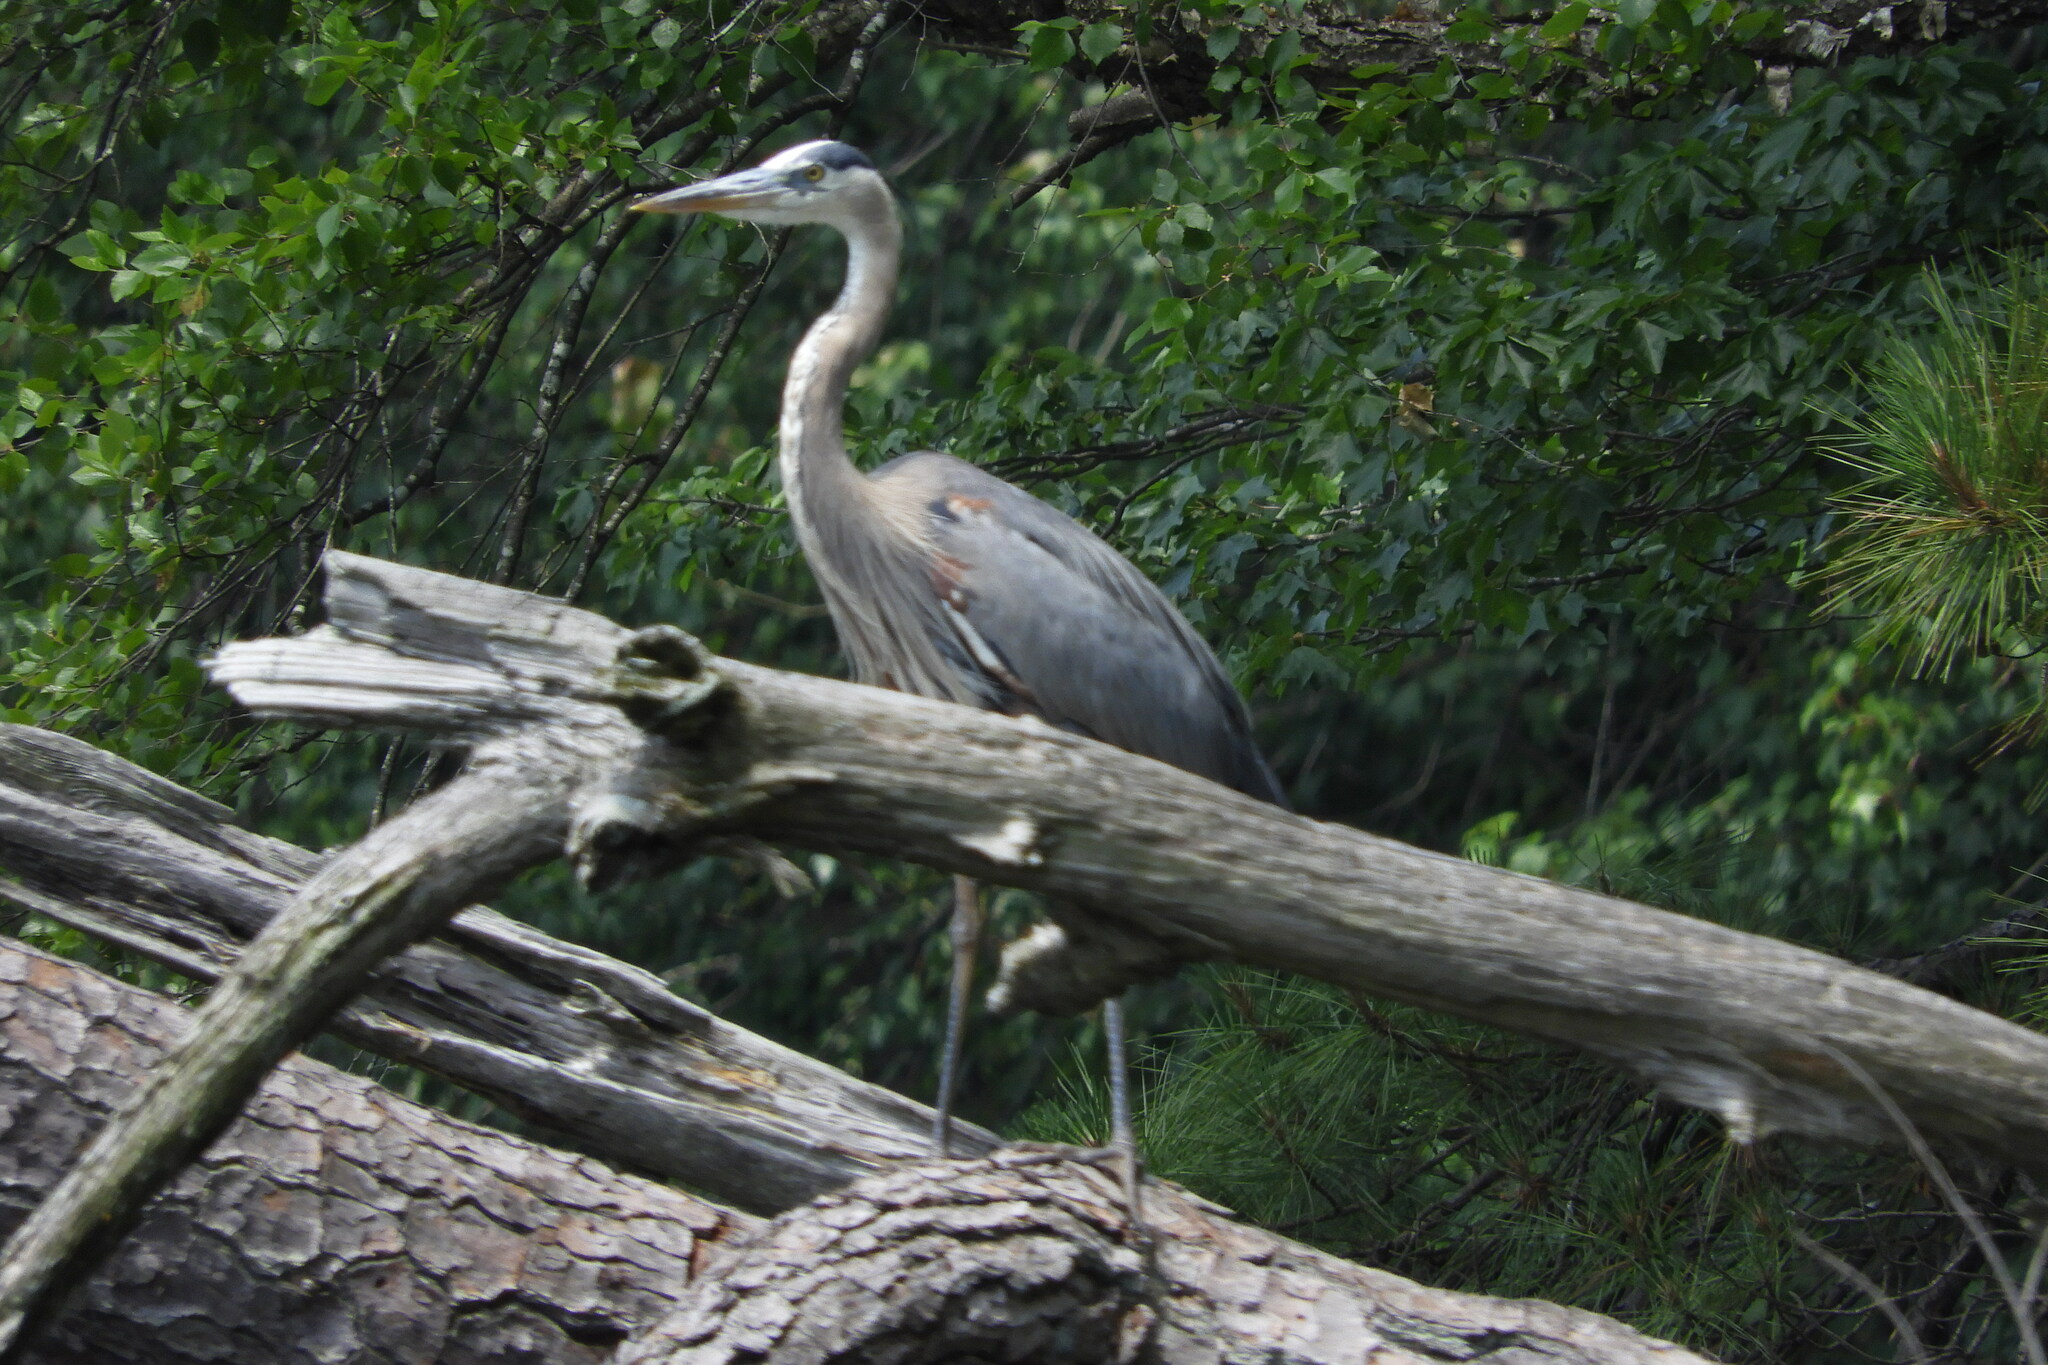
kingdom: Animalia
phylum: Chordata
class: Aves
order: Pelecaniformes
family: Ardeidae
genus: Ardea
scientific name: Ardea herodias
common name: Great blue heron
